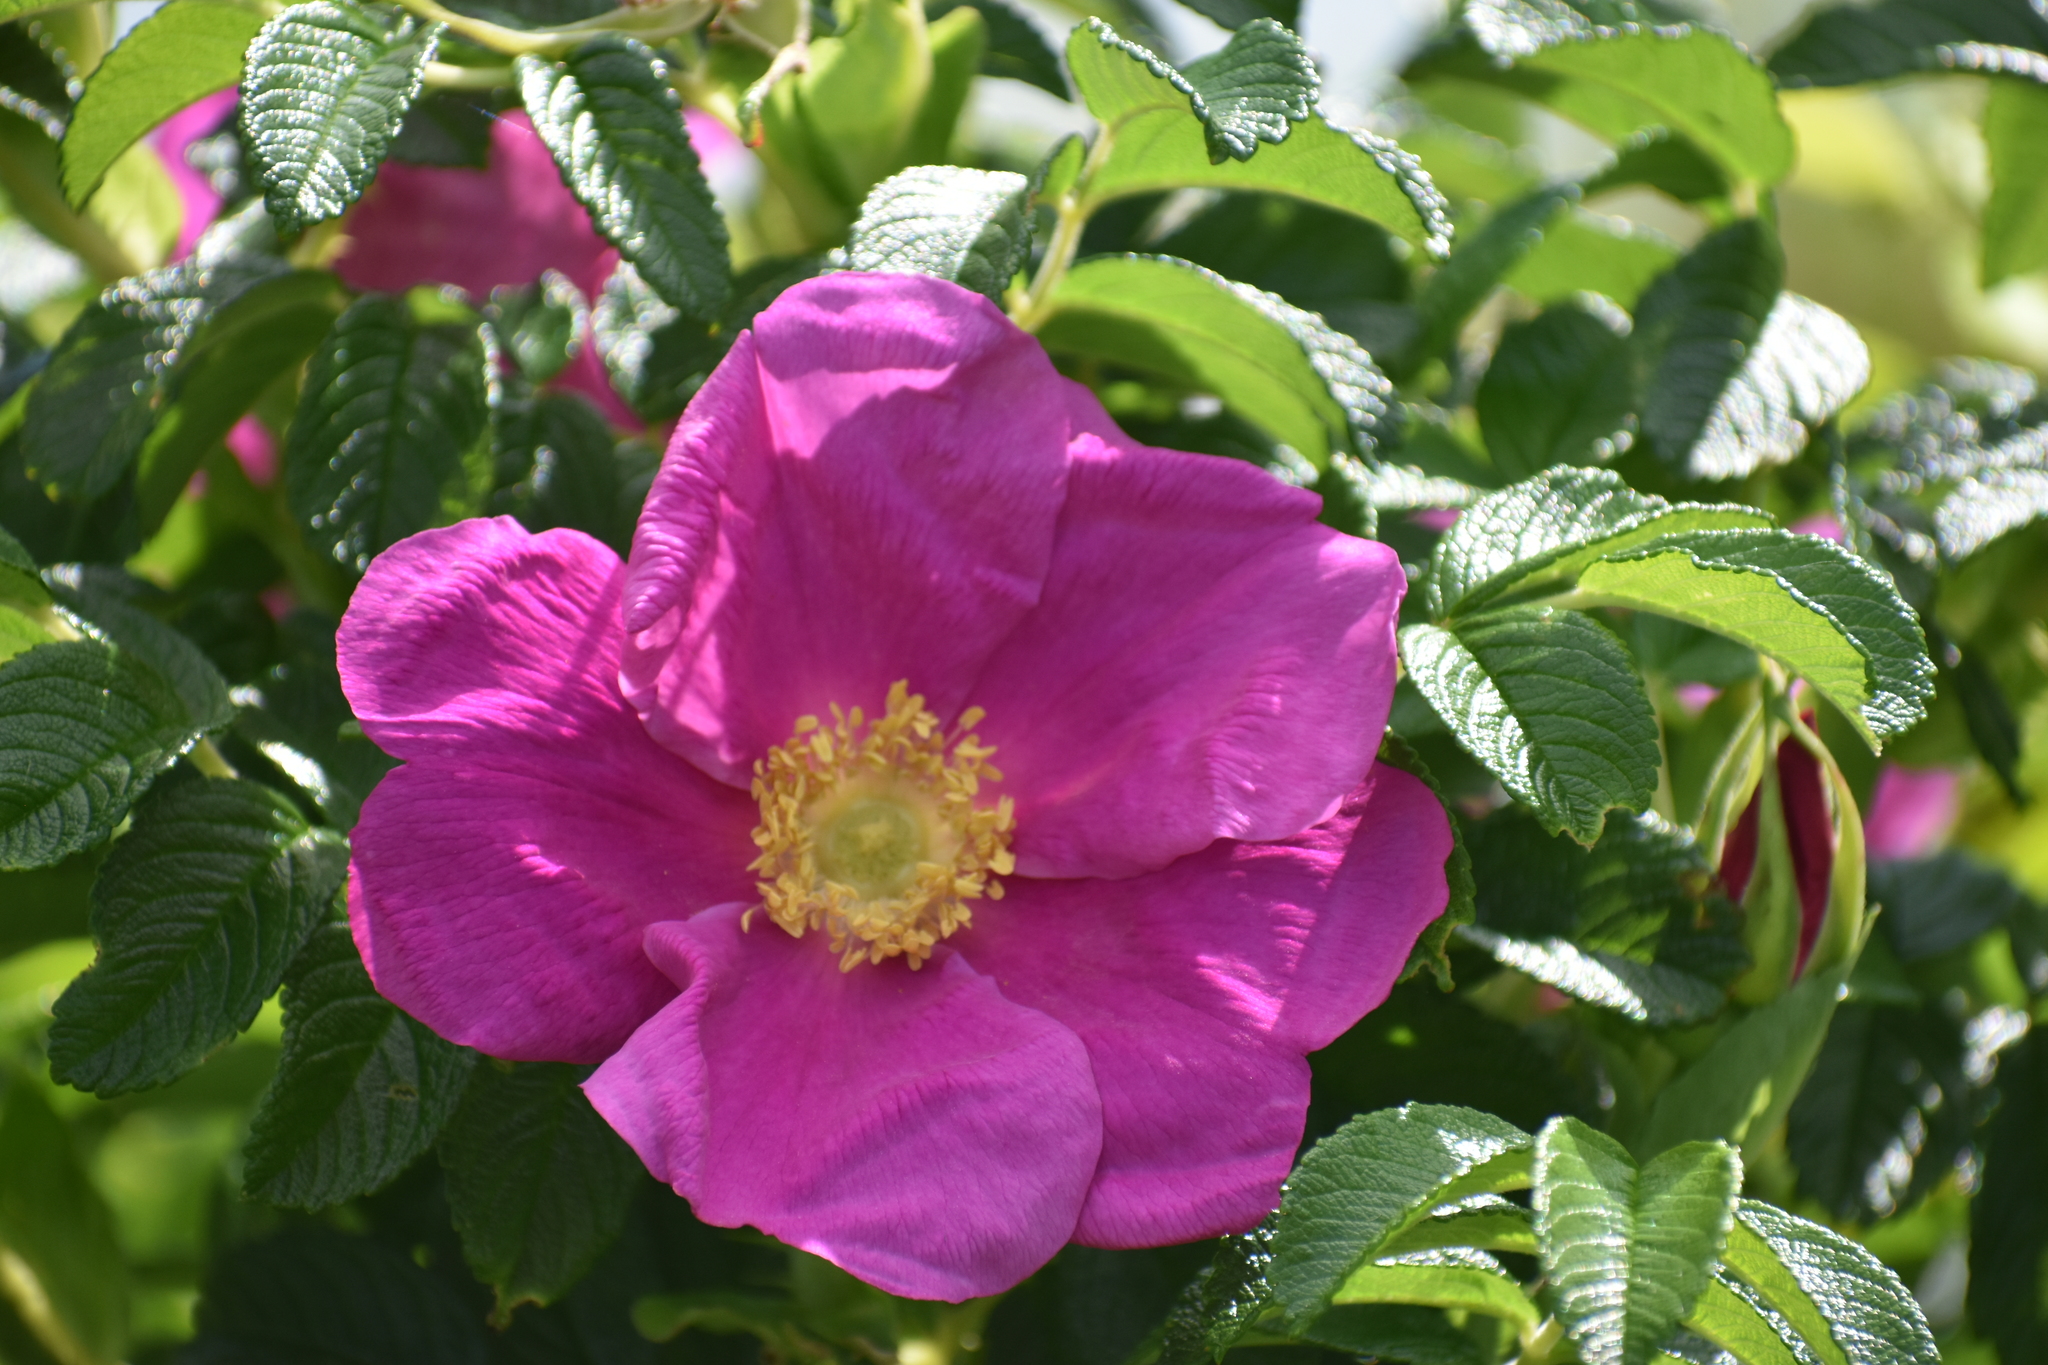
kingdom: Plantae
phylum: Tracheophyta
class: Magnoliopsida
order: Rosales
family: Rosaceae
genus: Rosa
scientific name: Rosa rugosa
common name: Japanese rose
